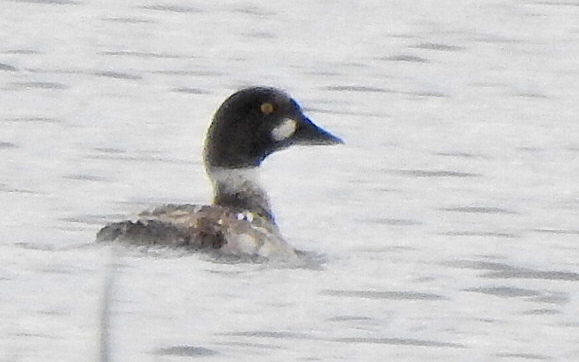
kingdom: Animalia
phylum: Chordata
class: Aves
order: Anseriformes
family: Anatidae
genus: Bucephala
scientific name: Bucephala clangula
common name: Common goldeneye
